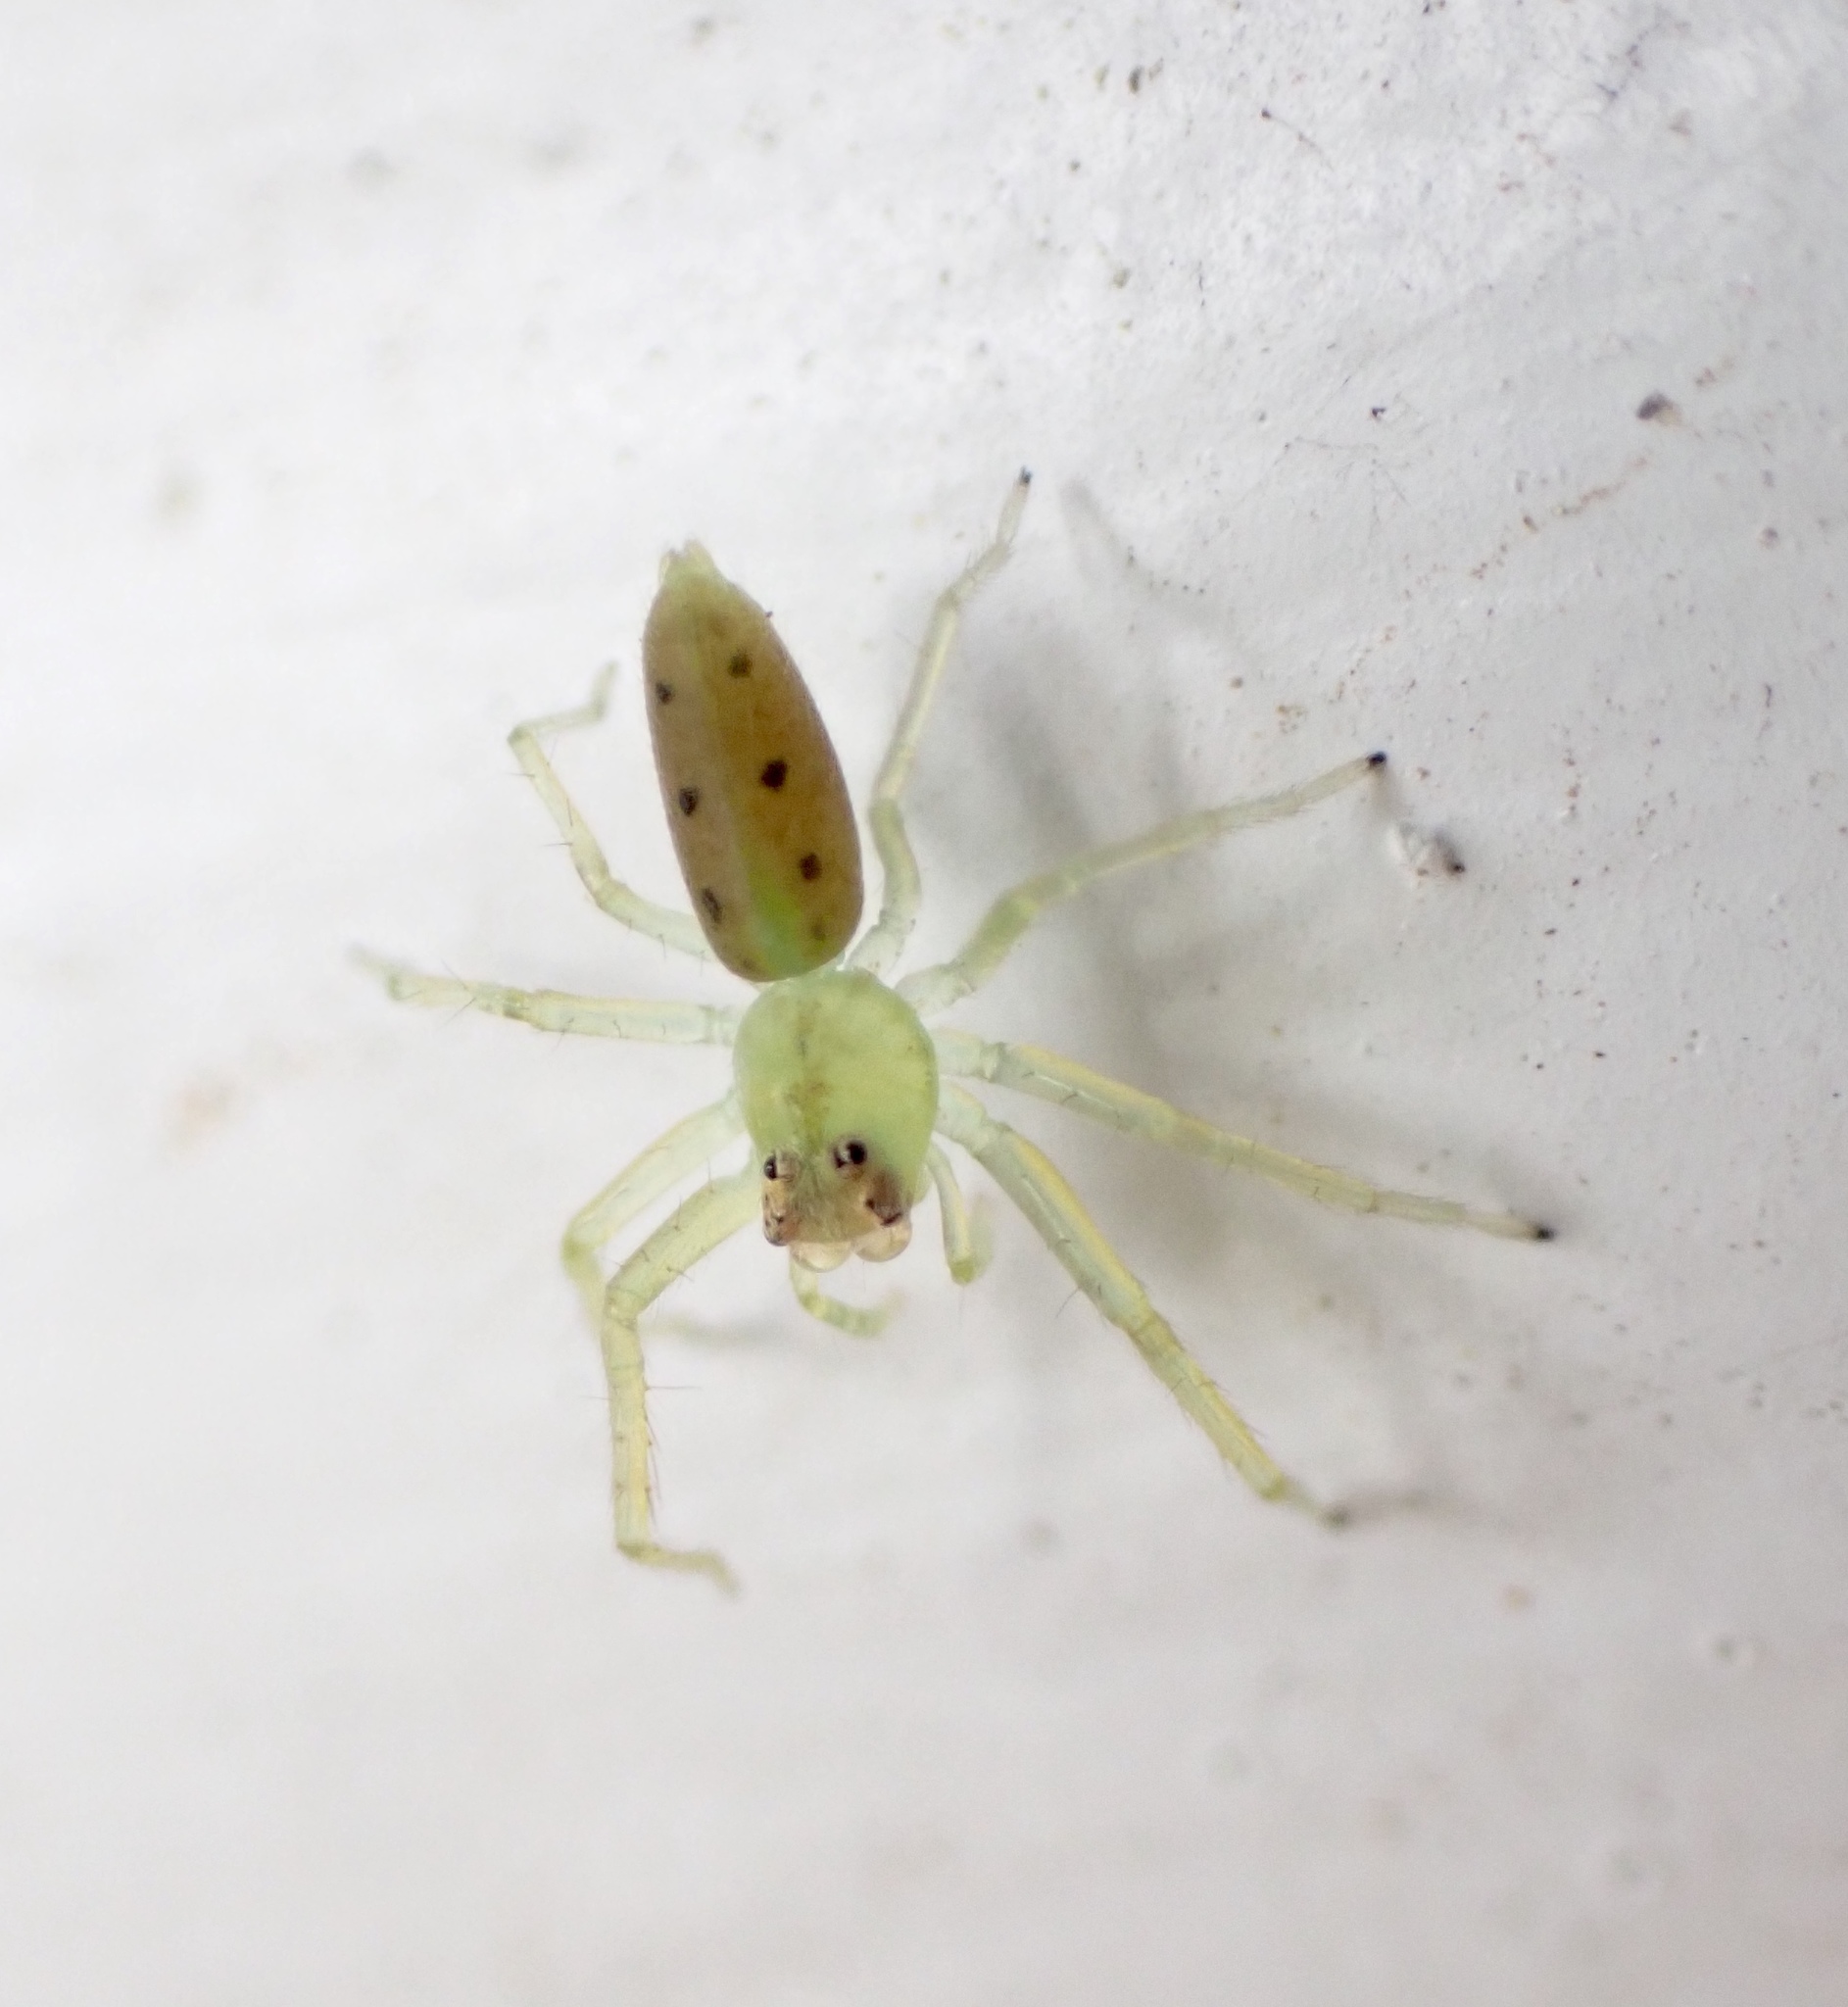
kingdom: Animalia
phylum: Arthropoda
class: Arachnida
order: Araneae
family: Salticidae
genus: Lyssomanes
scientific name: Lyssomanes viridis
